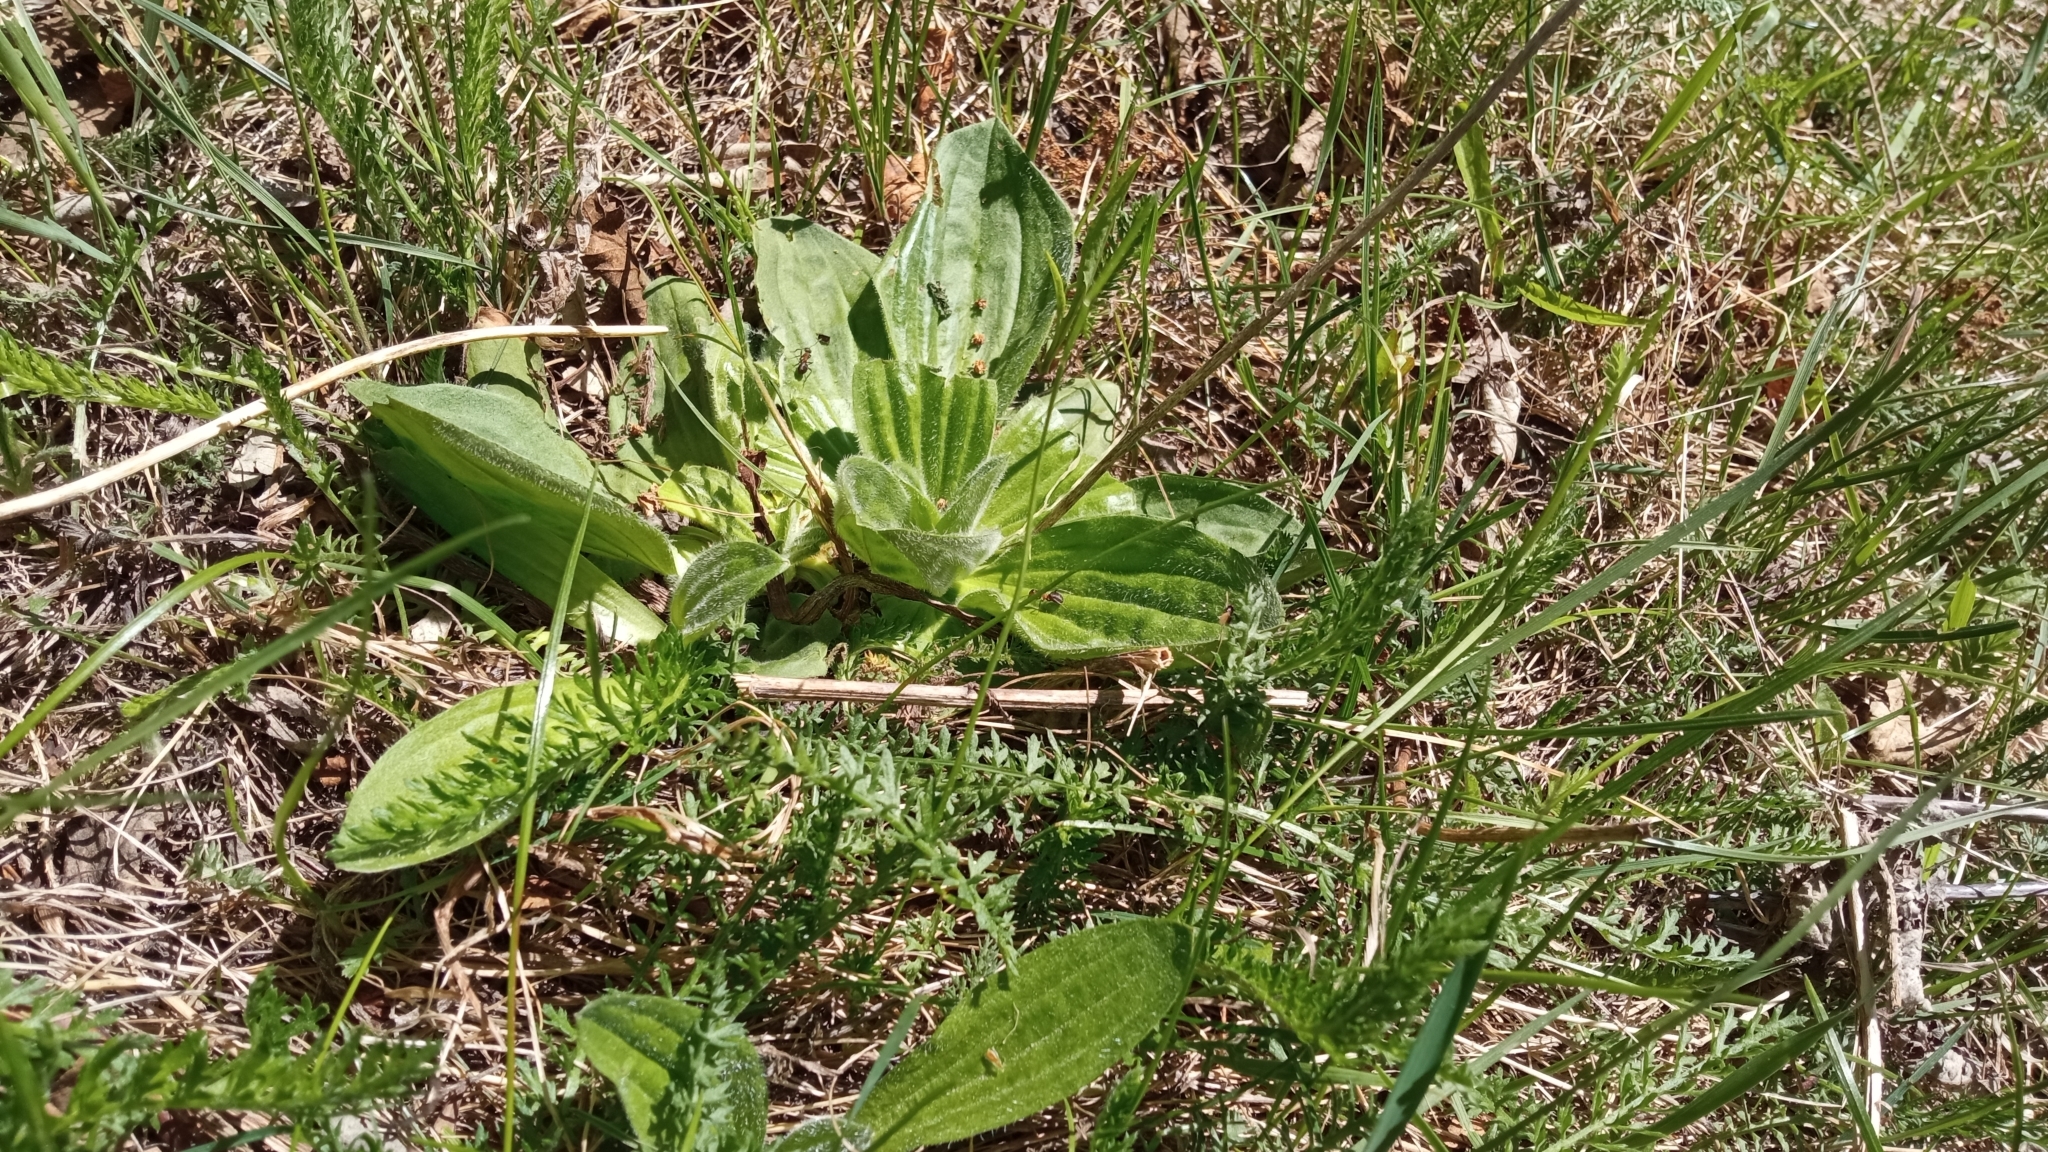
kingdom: Plantae
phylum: Tracheophyta
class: Magnoliopsida
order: Lamiales
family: Plantaginaceae
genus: Plantago
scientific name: Plantago media
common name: Hoary plantain
